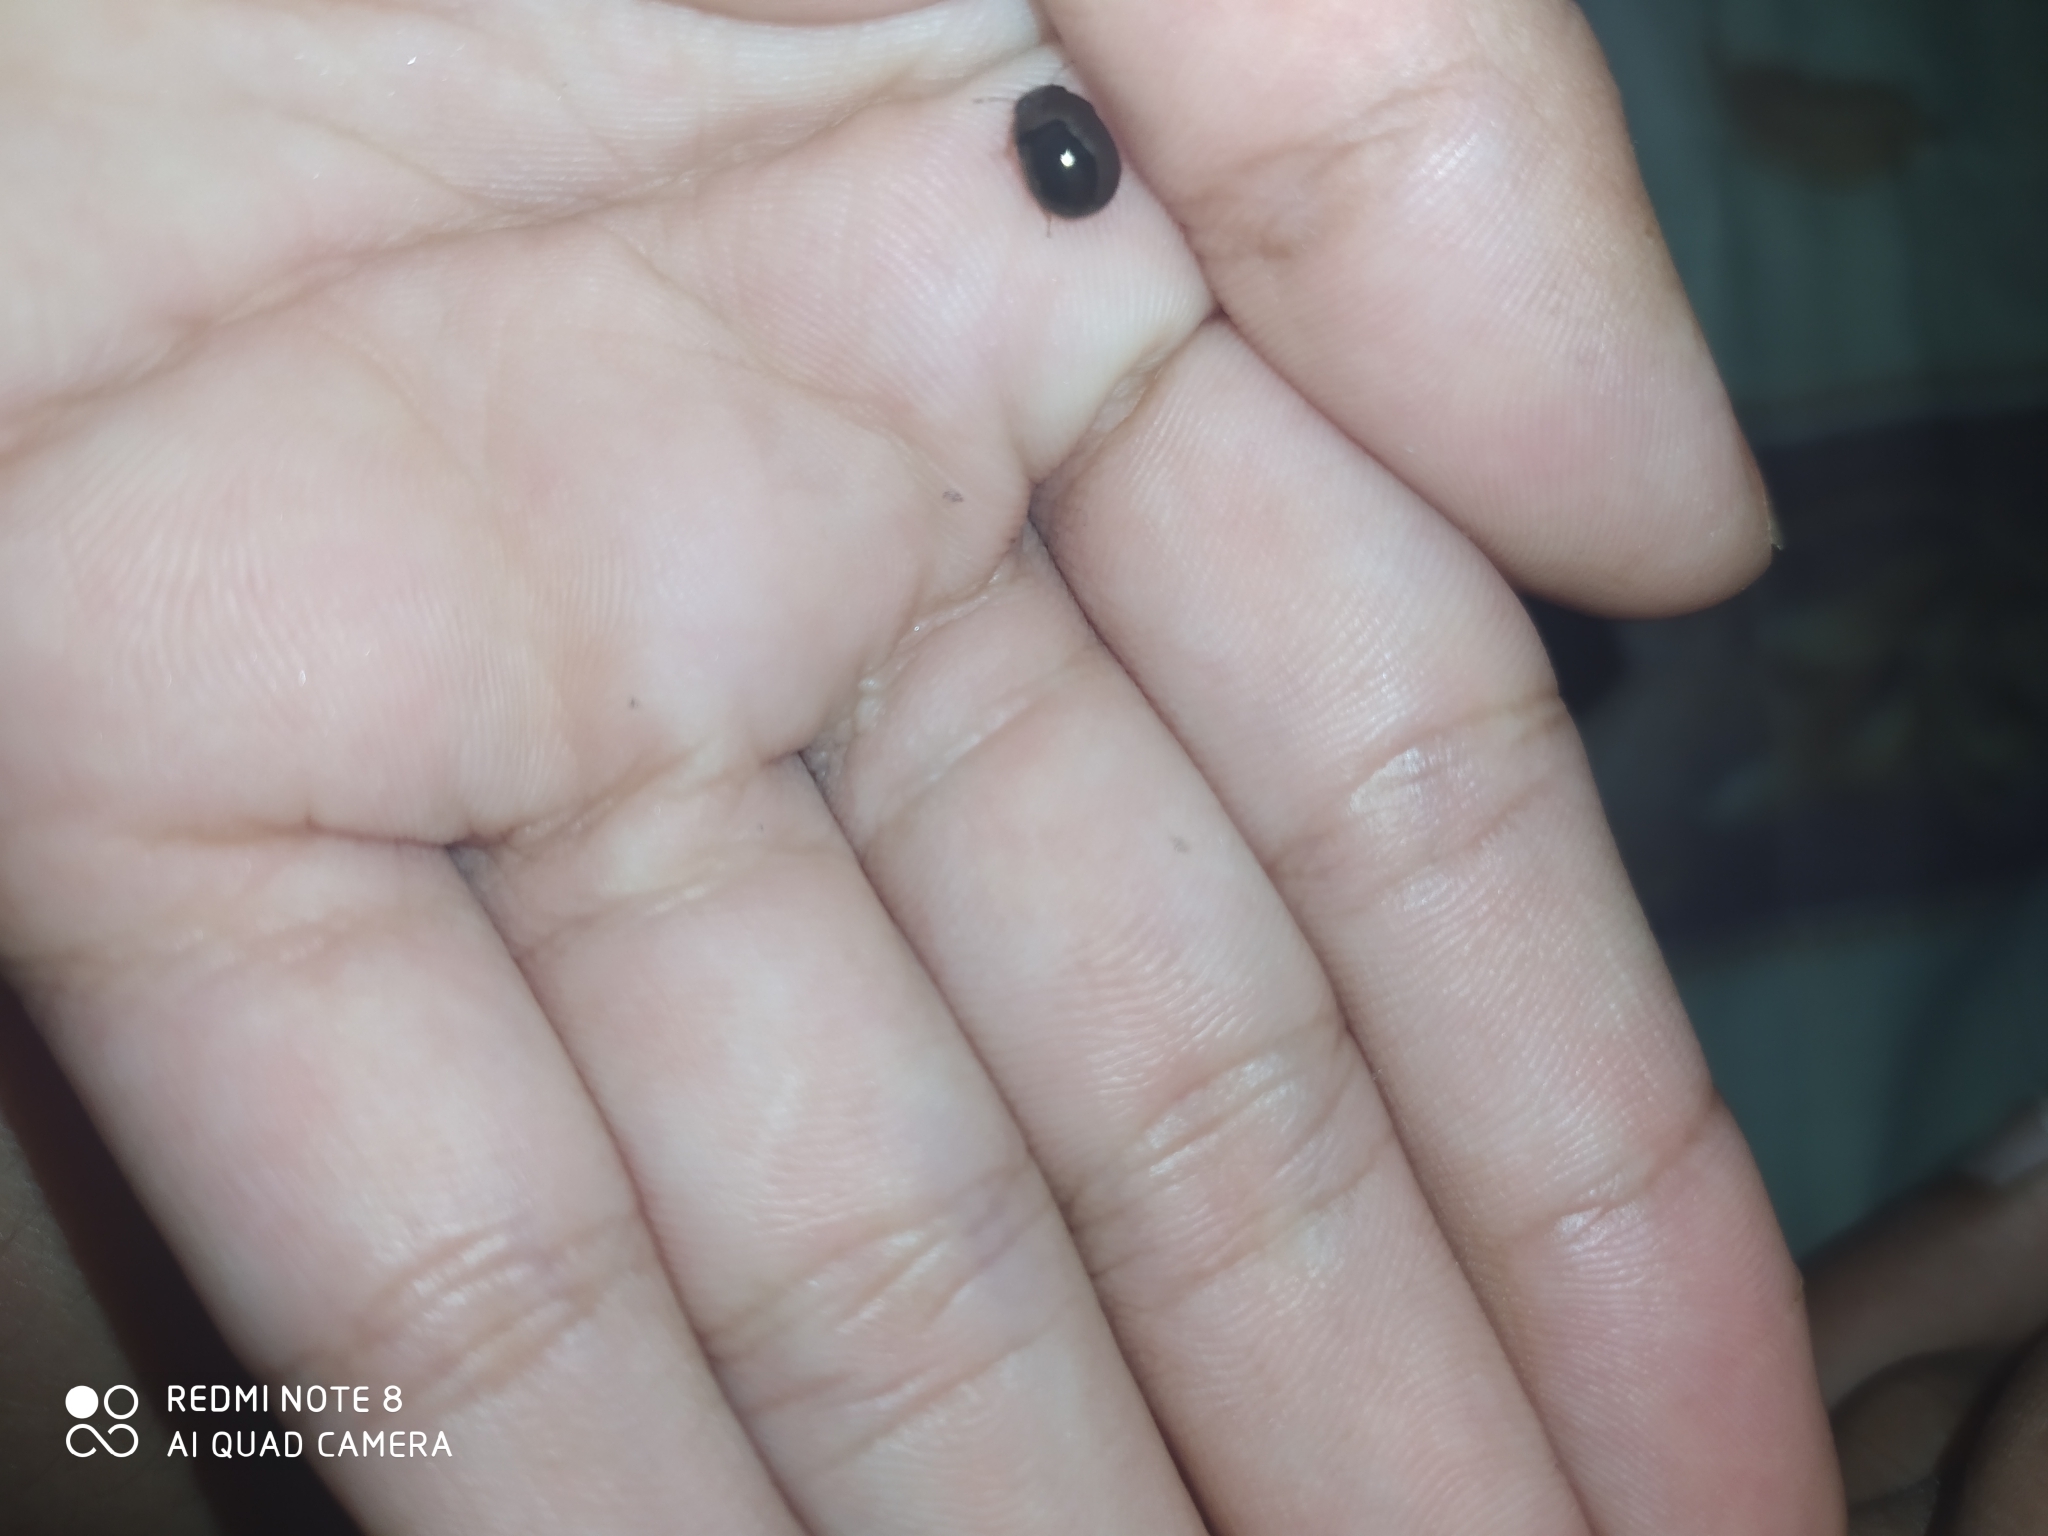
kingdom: Animalia
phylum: Arthropoda
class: Insecta
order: Hemiptera
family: Plataspidae
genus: Brachyplatys
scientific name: Brachyplatys subaeneus
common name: Black bean bug
